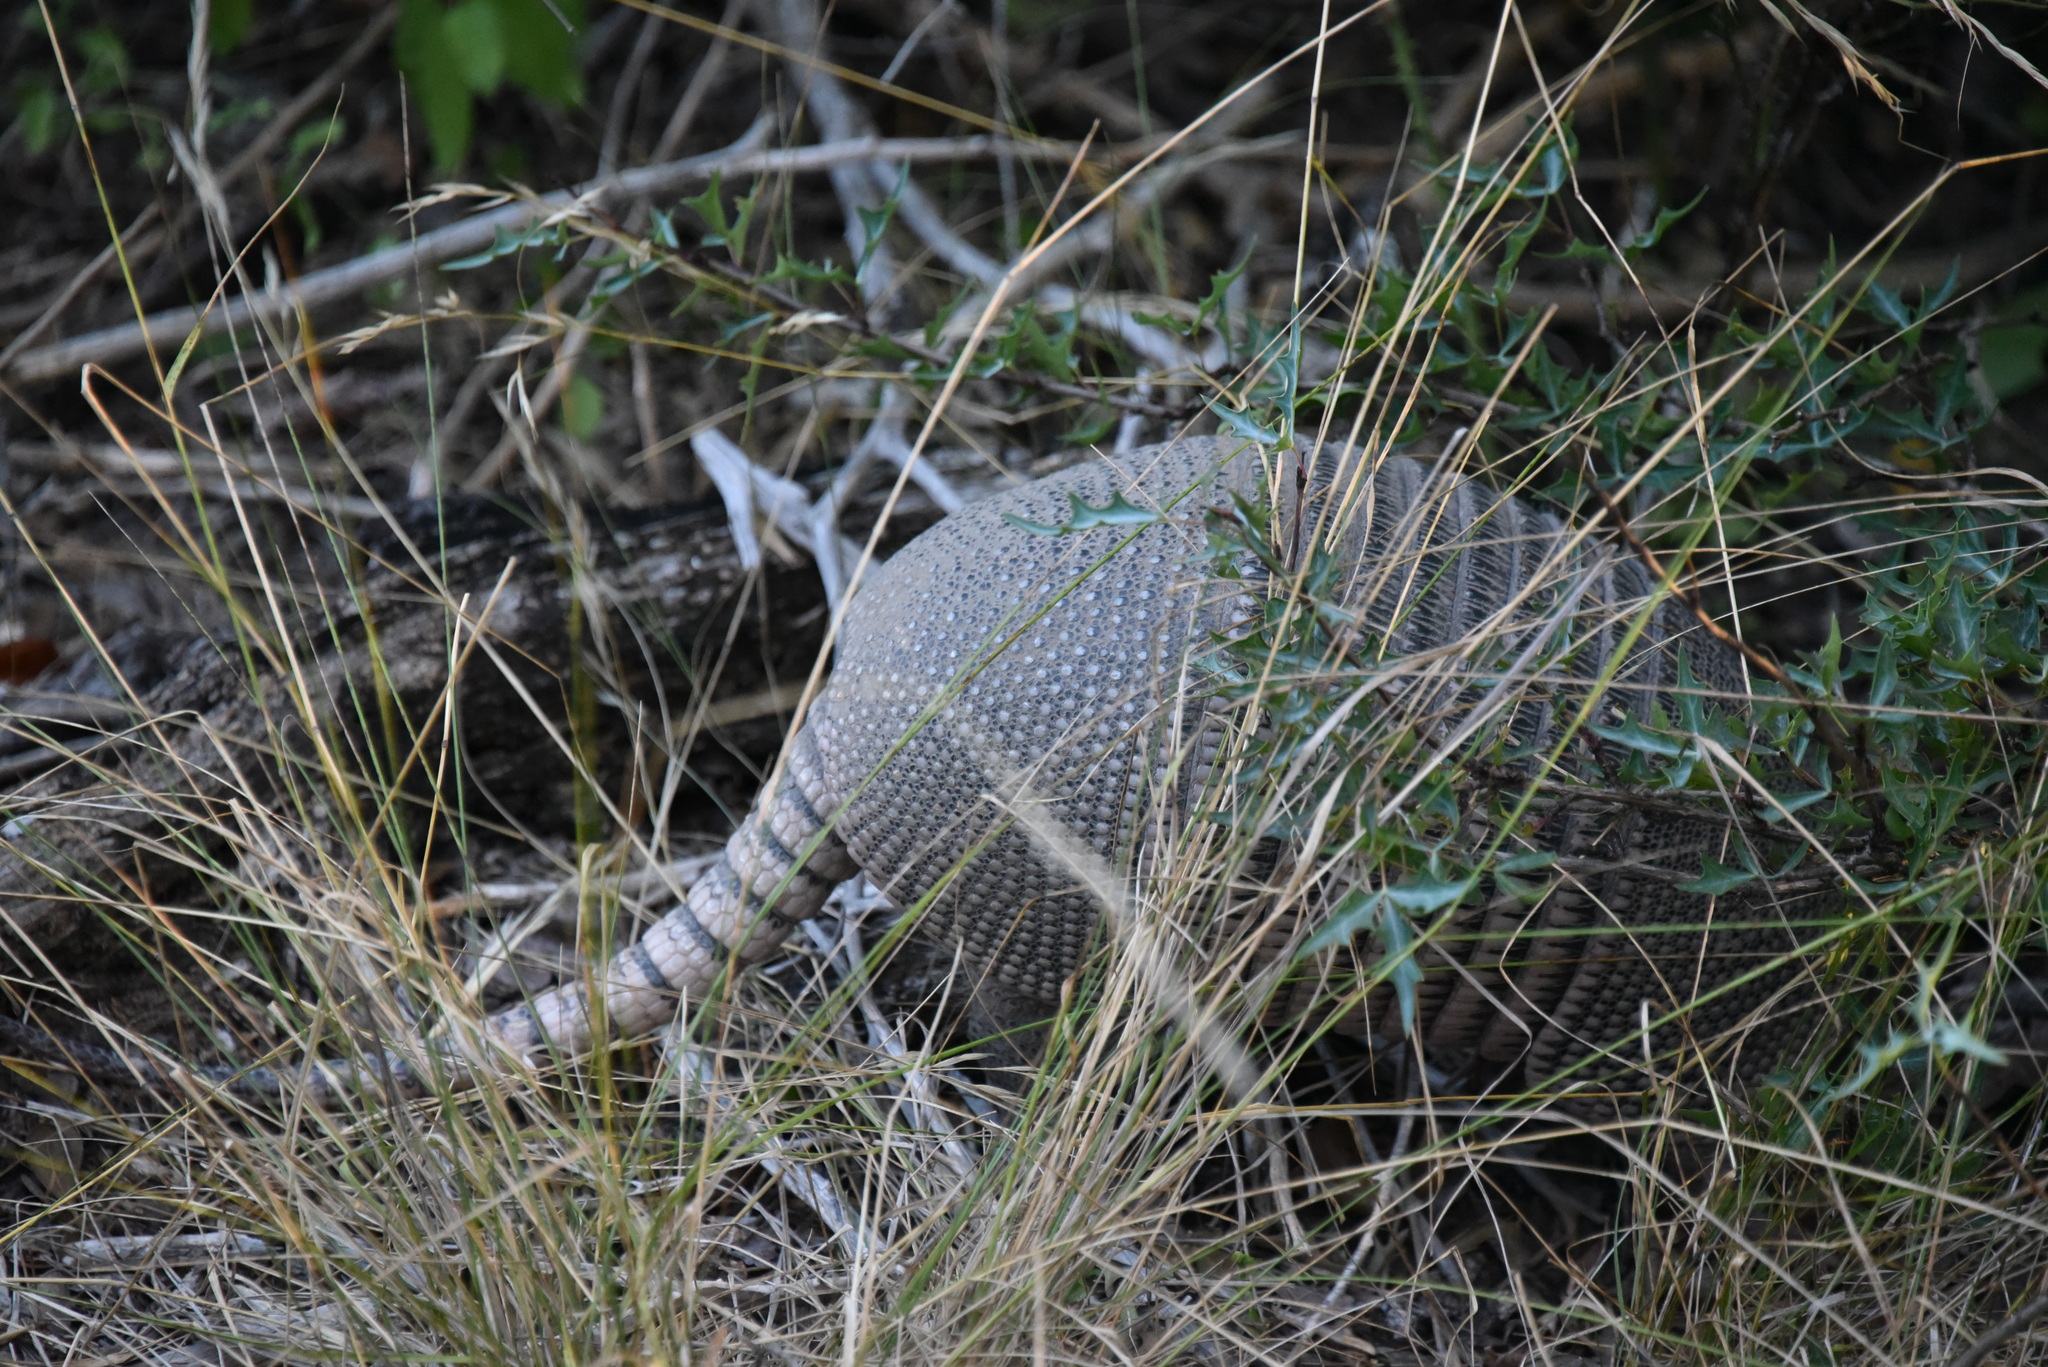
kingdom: Animalia
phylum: Chordata
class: Mammalia
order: Cingulata
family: Dasypodidae
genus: Dasypus
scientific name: Dasypus novemcinctus
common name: Nine-banded armadillo
